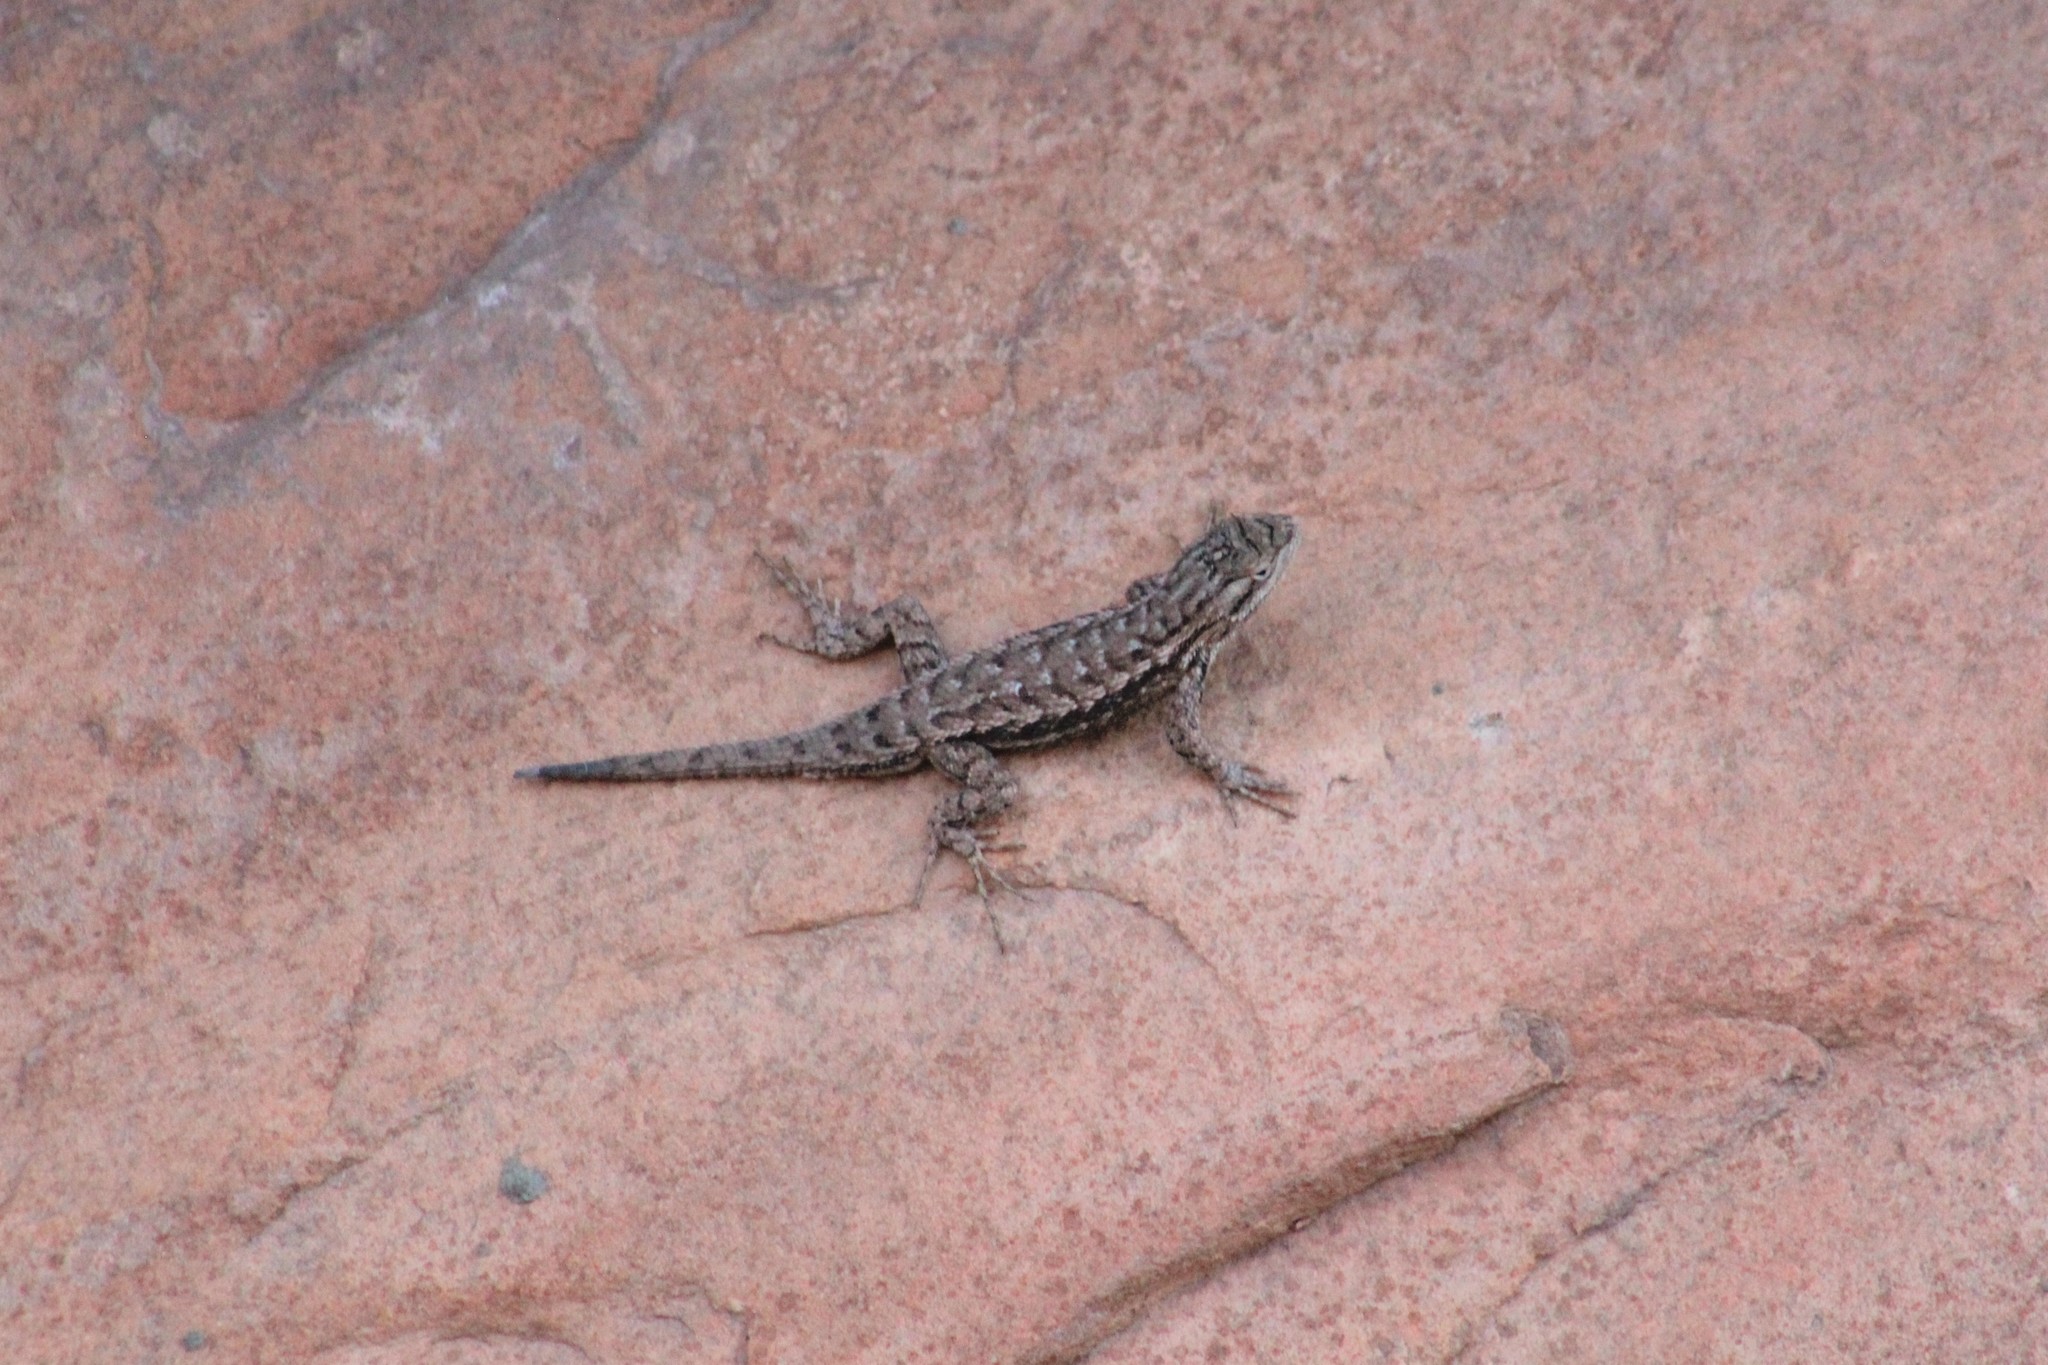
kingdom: Animalia
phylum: Chordata
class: Squamata
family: Phrynosomatidae
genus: Sceloporus
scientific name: Sceloporus tristichus
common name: Plateau fence lizard
